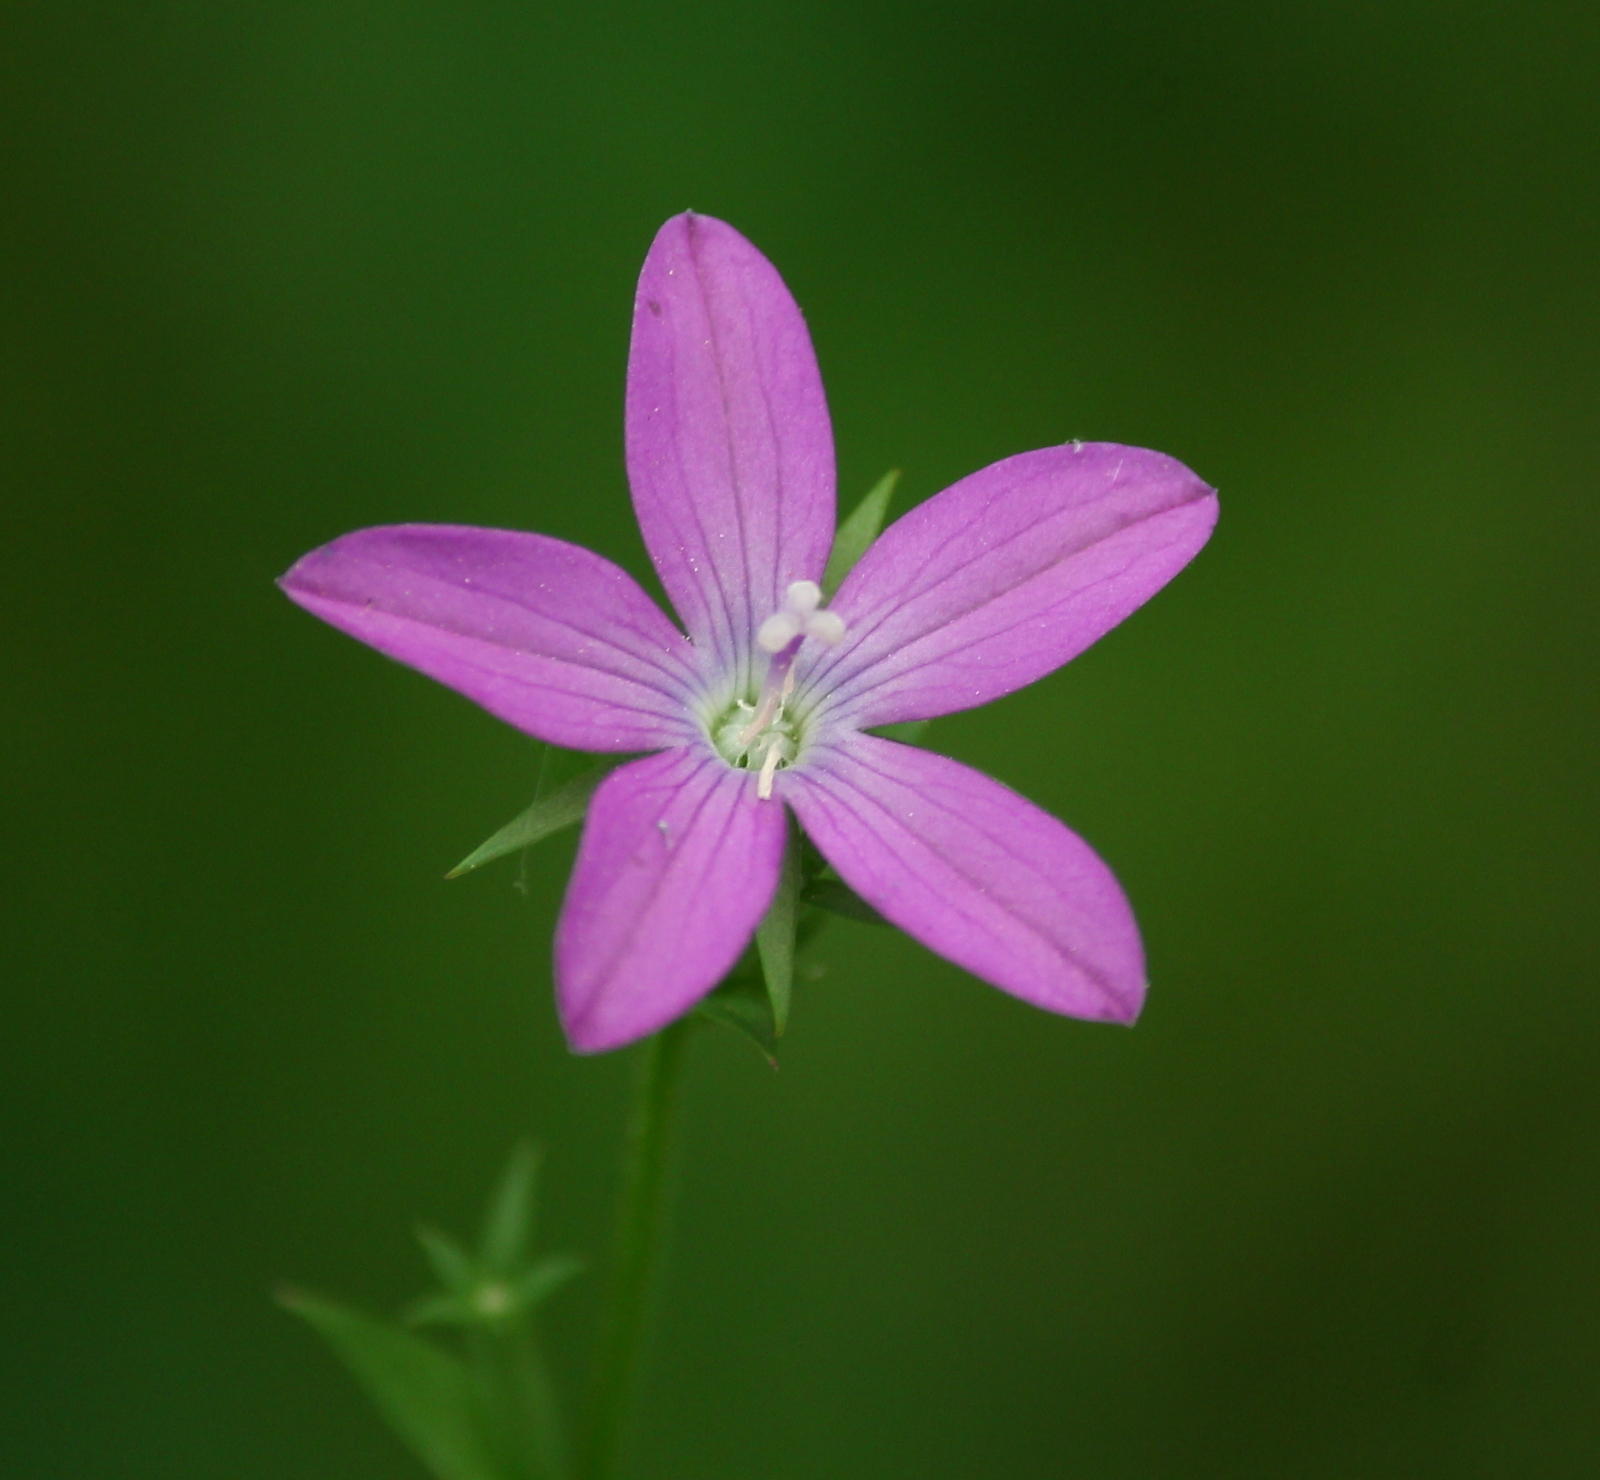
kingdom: Plantae
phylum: Tracheophyta
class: Magnoliopsida
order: Asterales
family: Campanulaceae
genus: Triodanis
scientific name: Triodanis biflora
